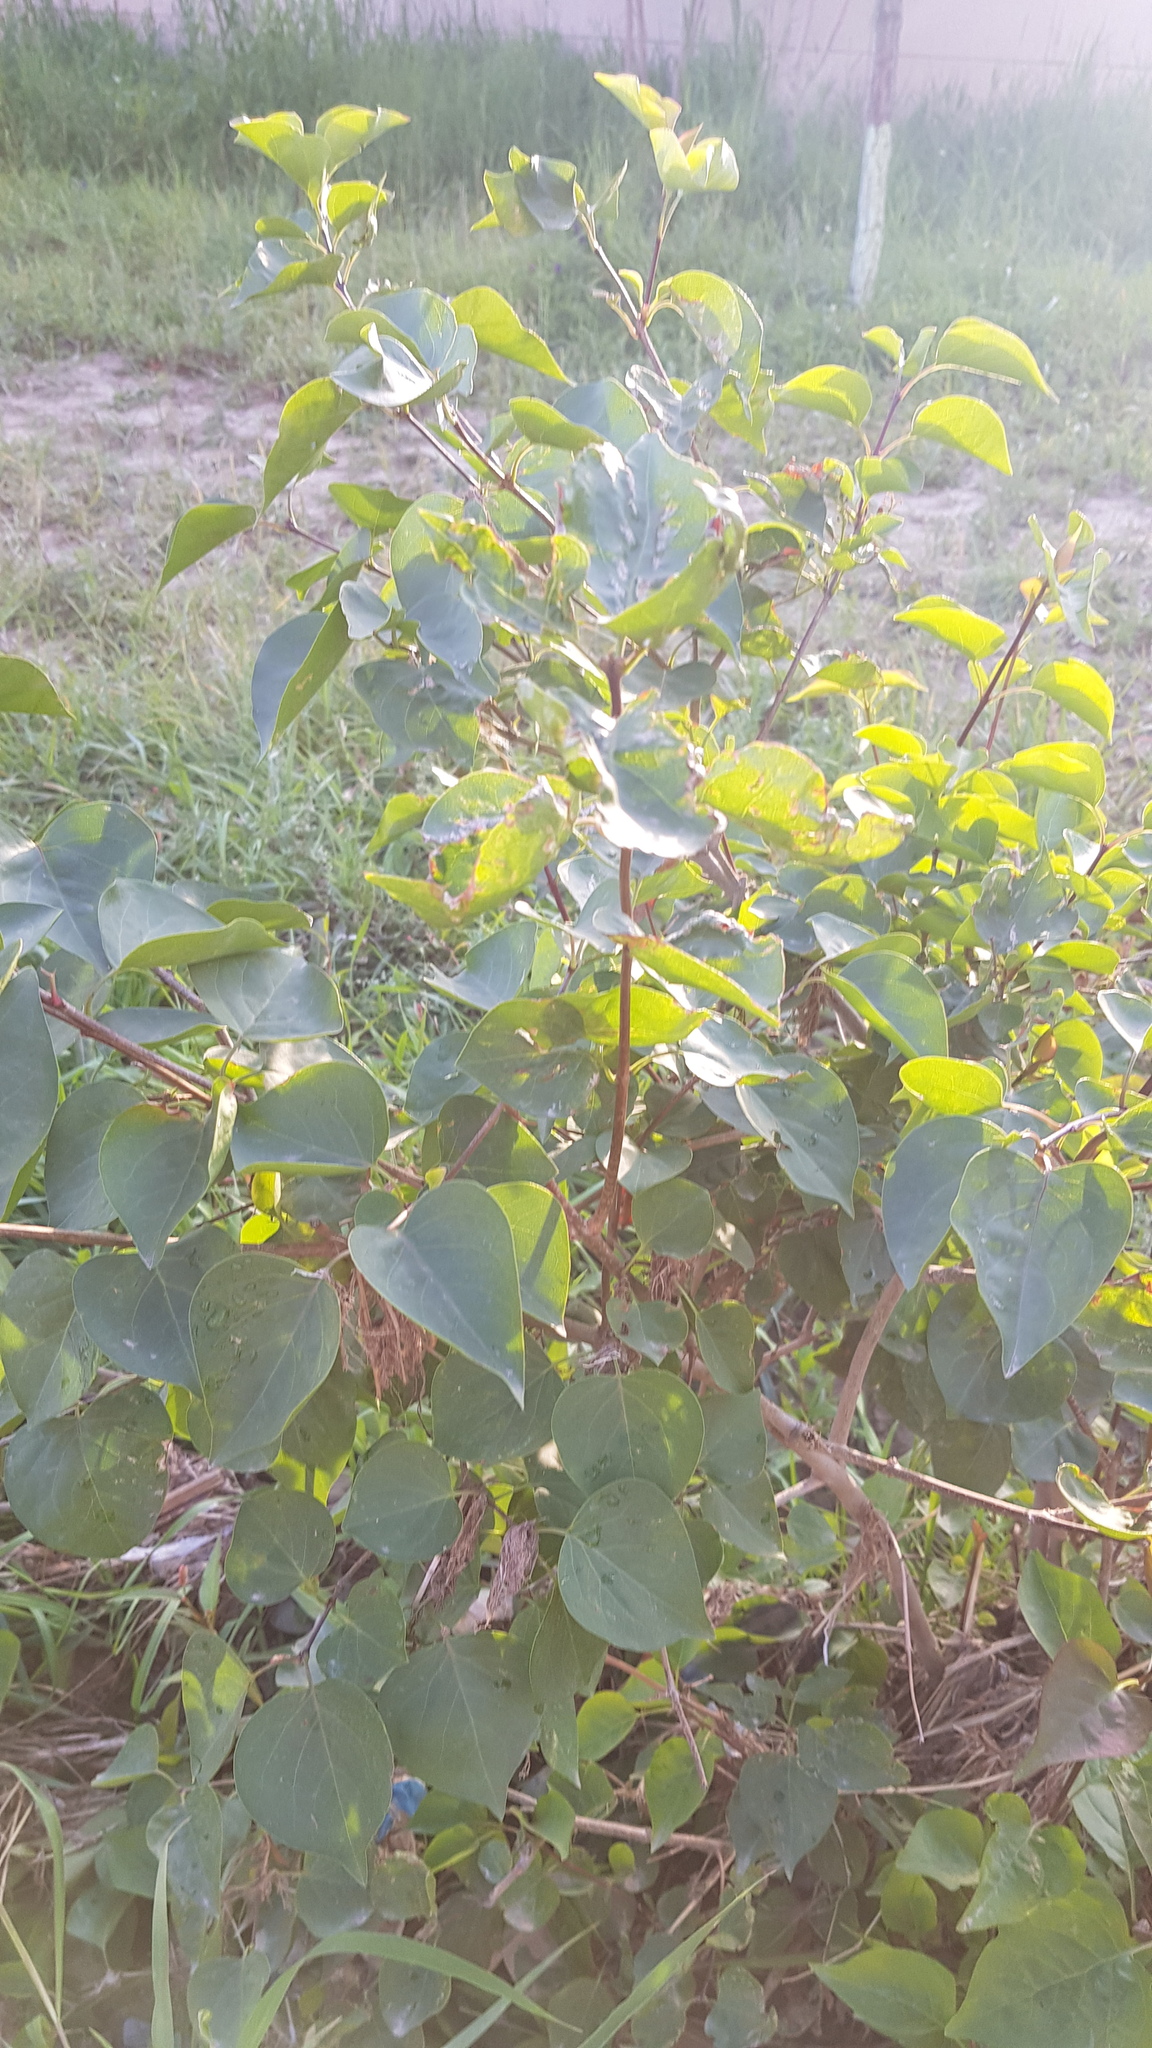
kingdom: Plantae
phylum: Tracheophyta
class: Magnoliopsida
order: Rosales
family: Rosaceae
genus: Prunus
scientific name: Prunus sibirica
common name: Siberian apricot
